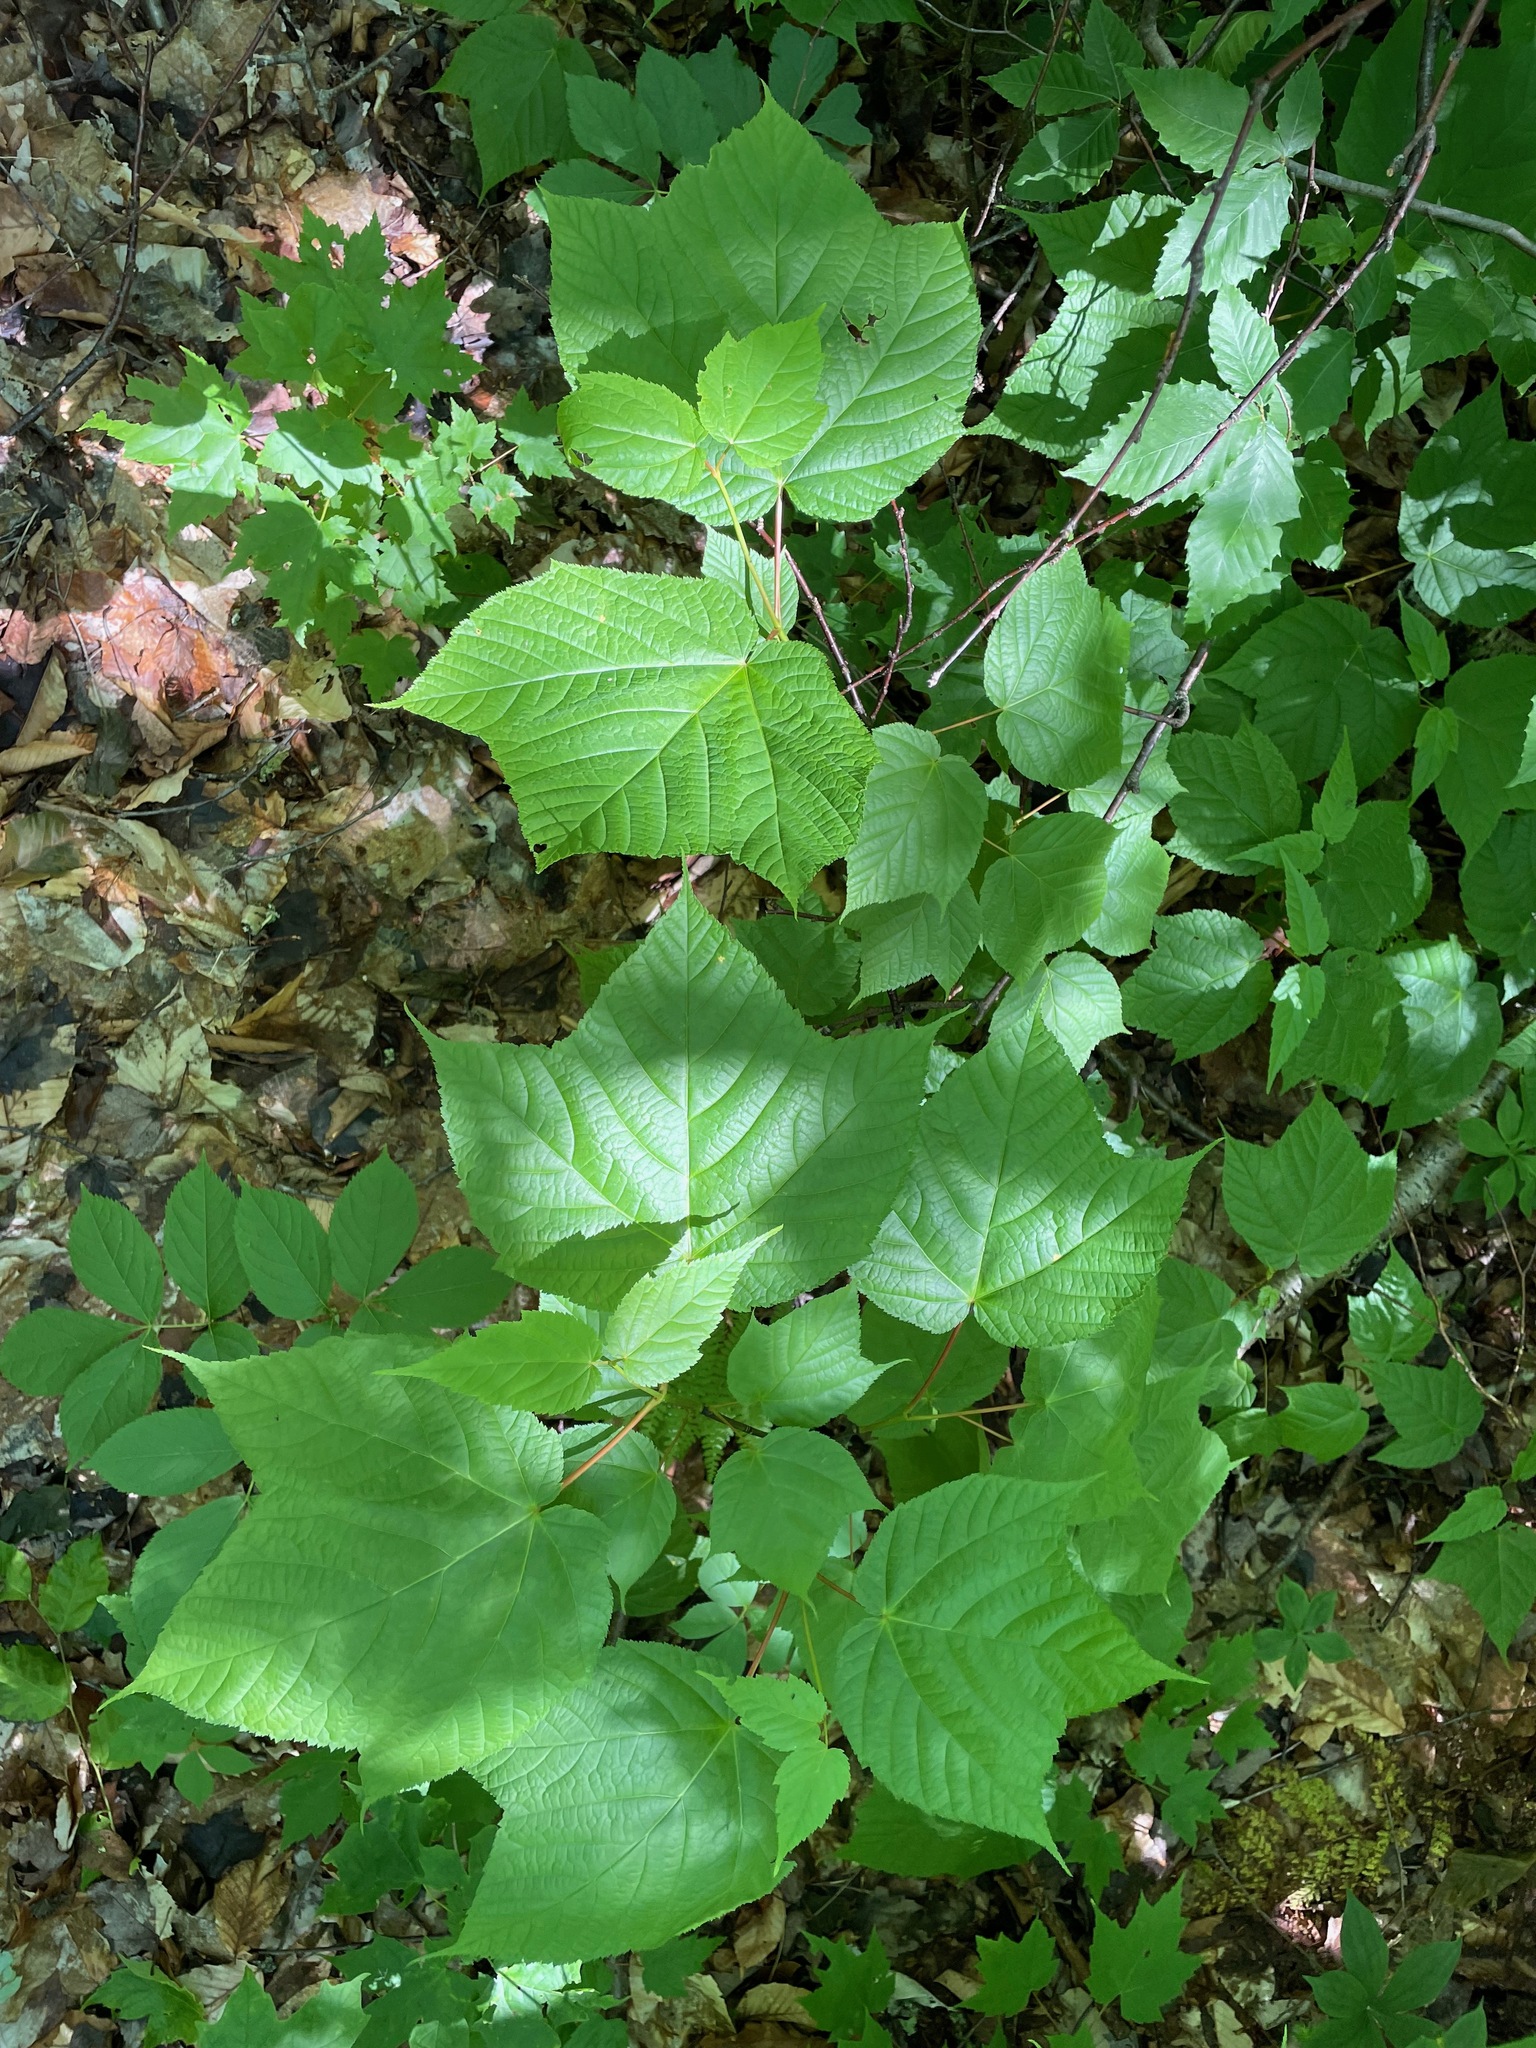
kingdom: Plantae
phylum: Tracheophyta
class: Magnoliopsida
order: Sapindales
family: Sapindaceae
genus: Acer
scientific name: Acer pensylvanicum
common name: Moosewood
